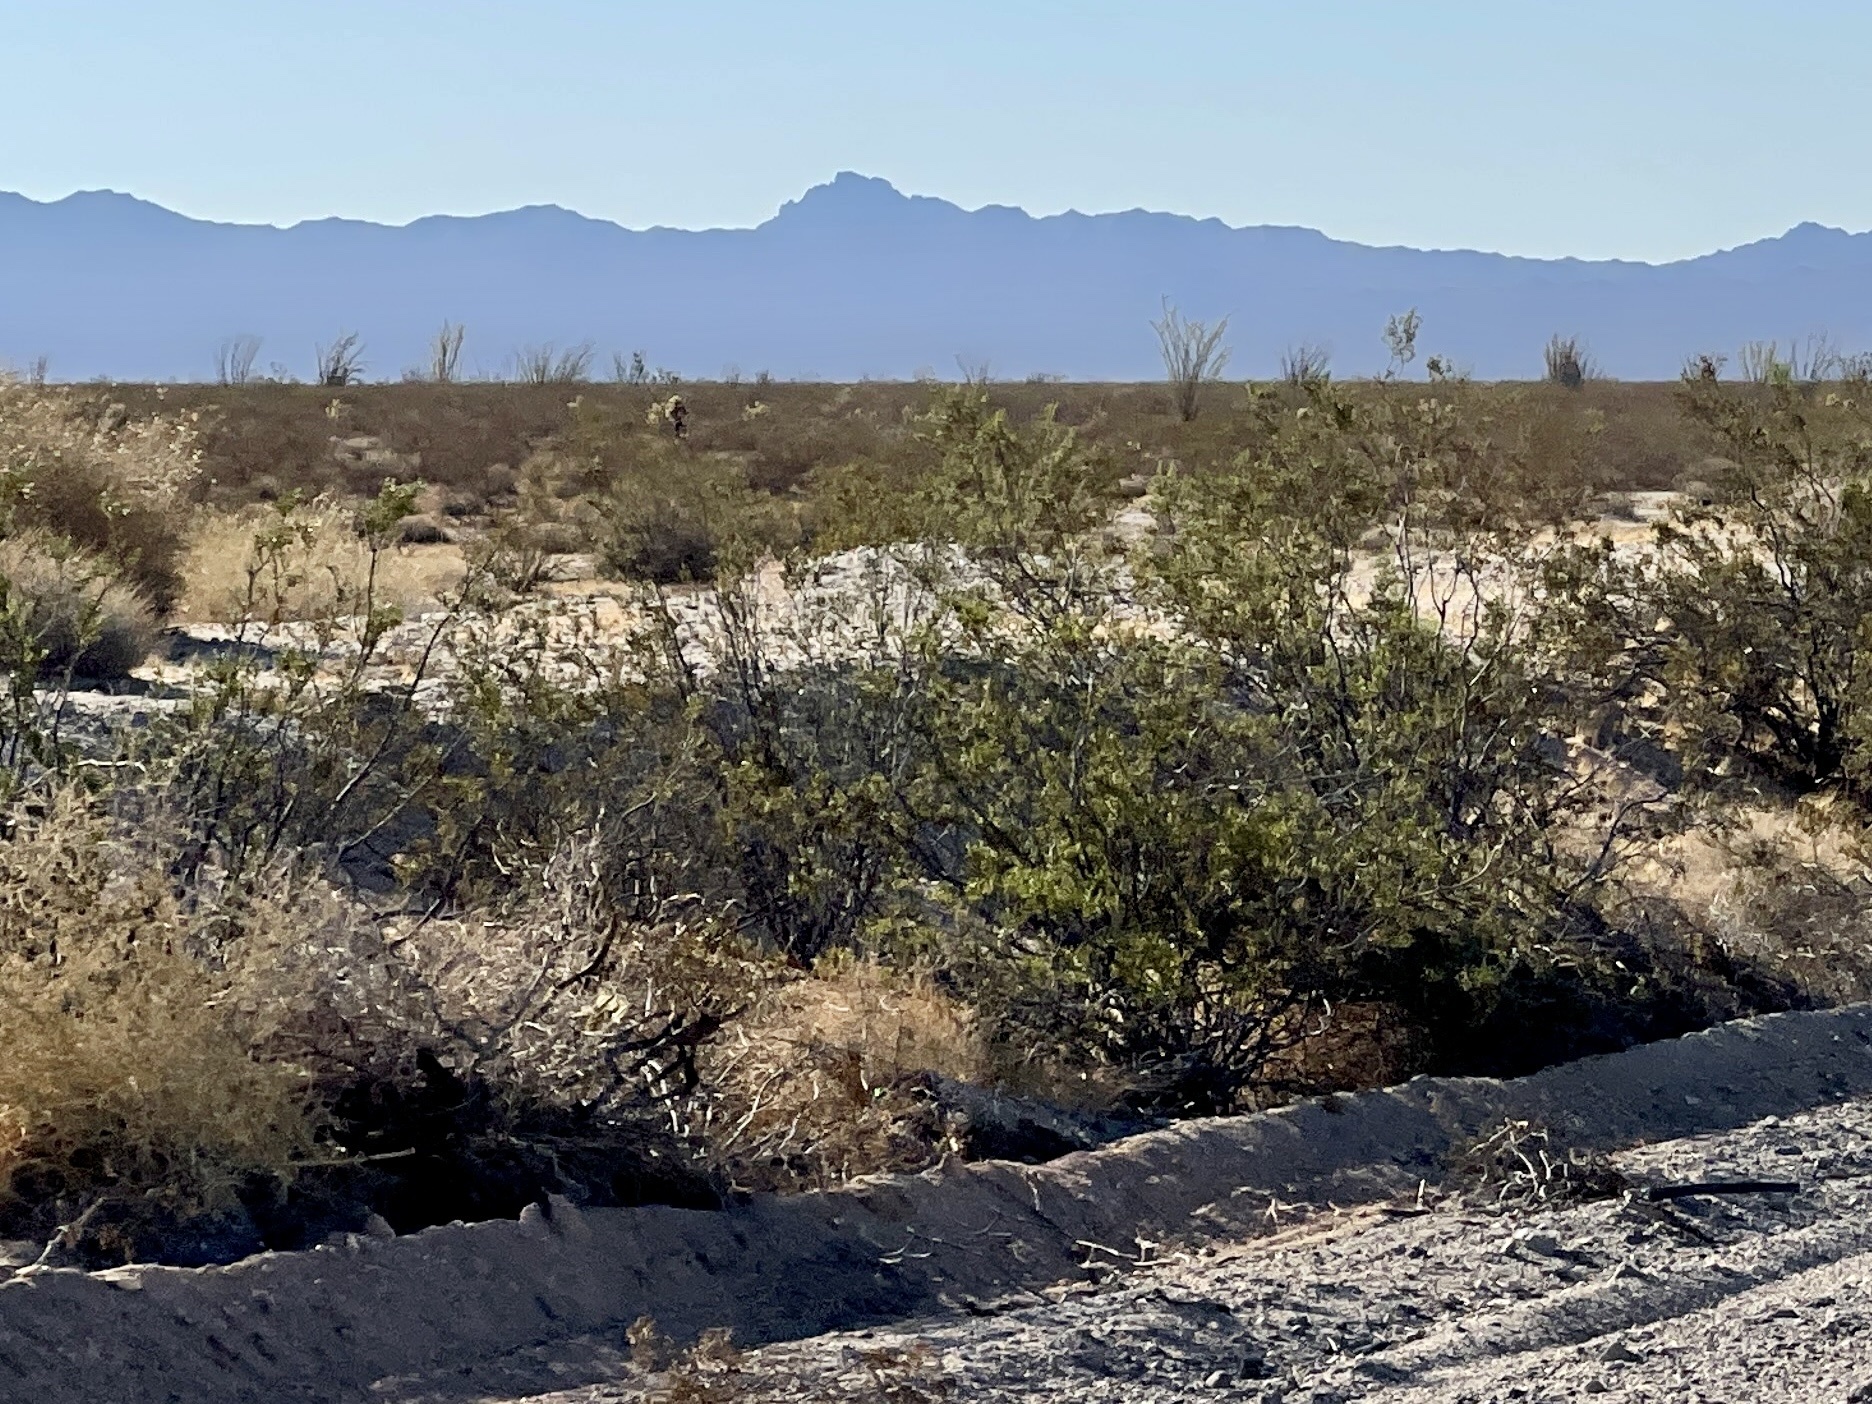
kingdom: Plantae
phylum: Tracheophyta
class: Magnoliopsida
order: Zygophyllales
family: Zygophyllaceae
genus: Larrea
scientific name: Larrea tridentata
